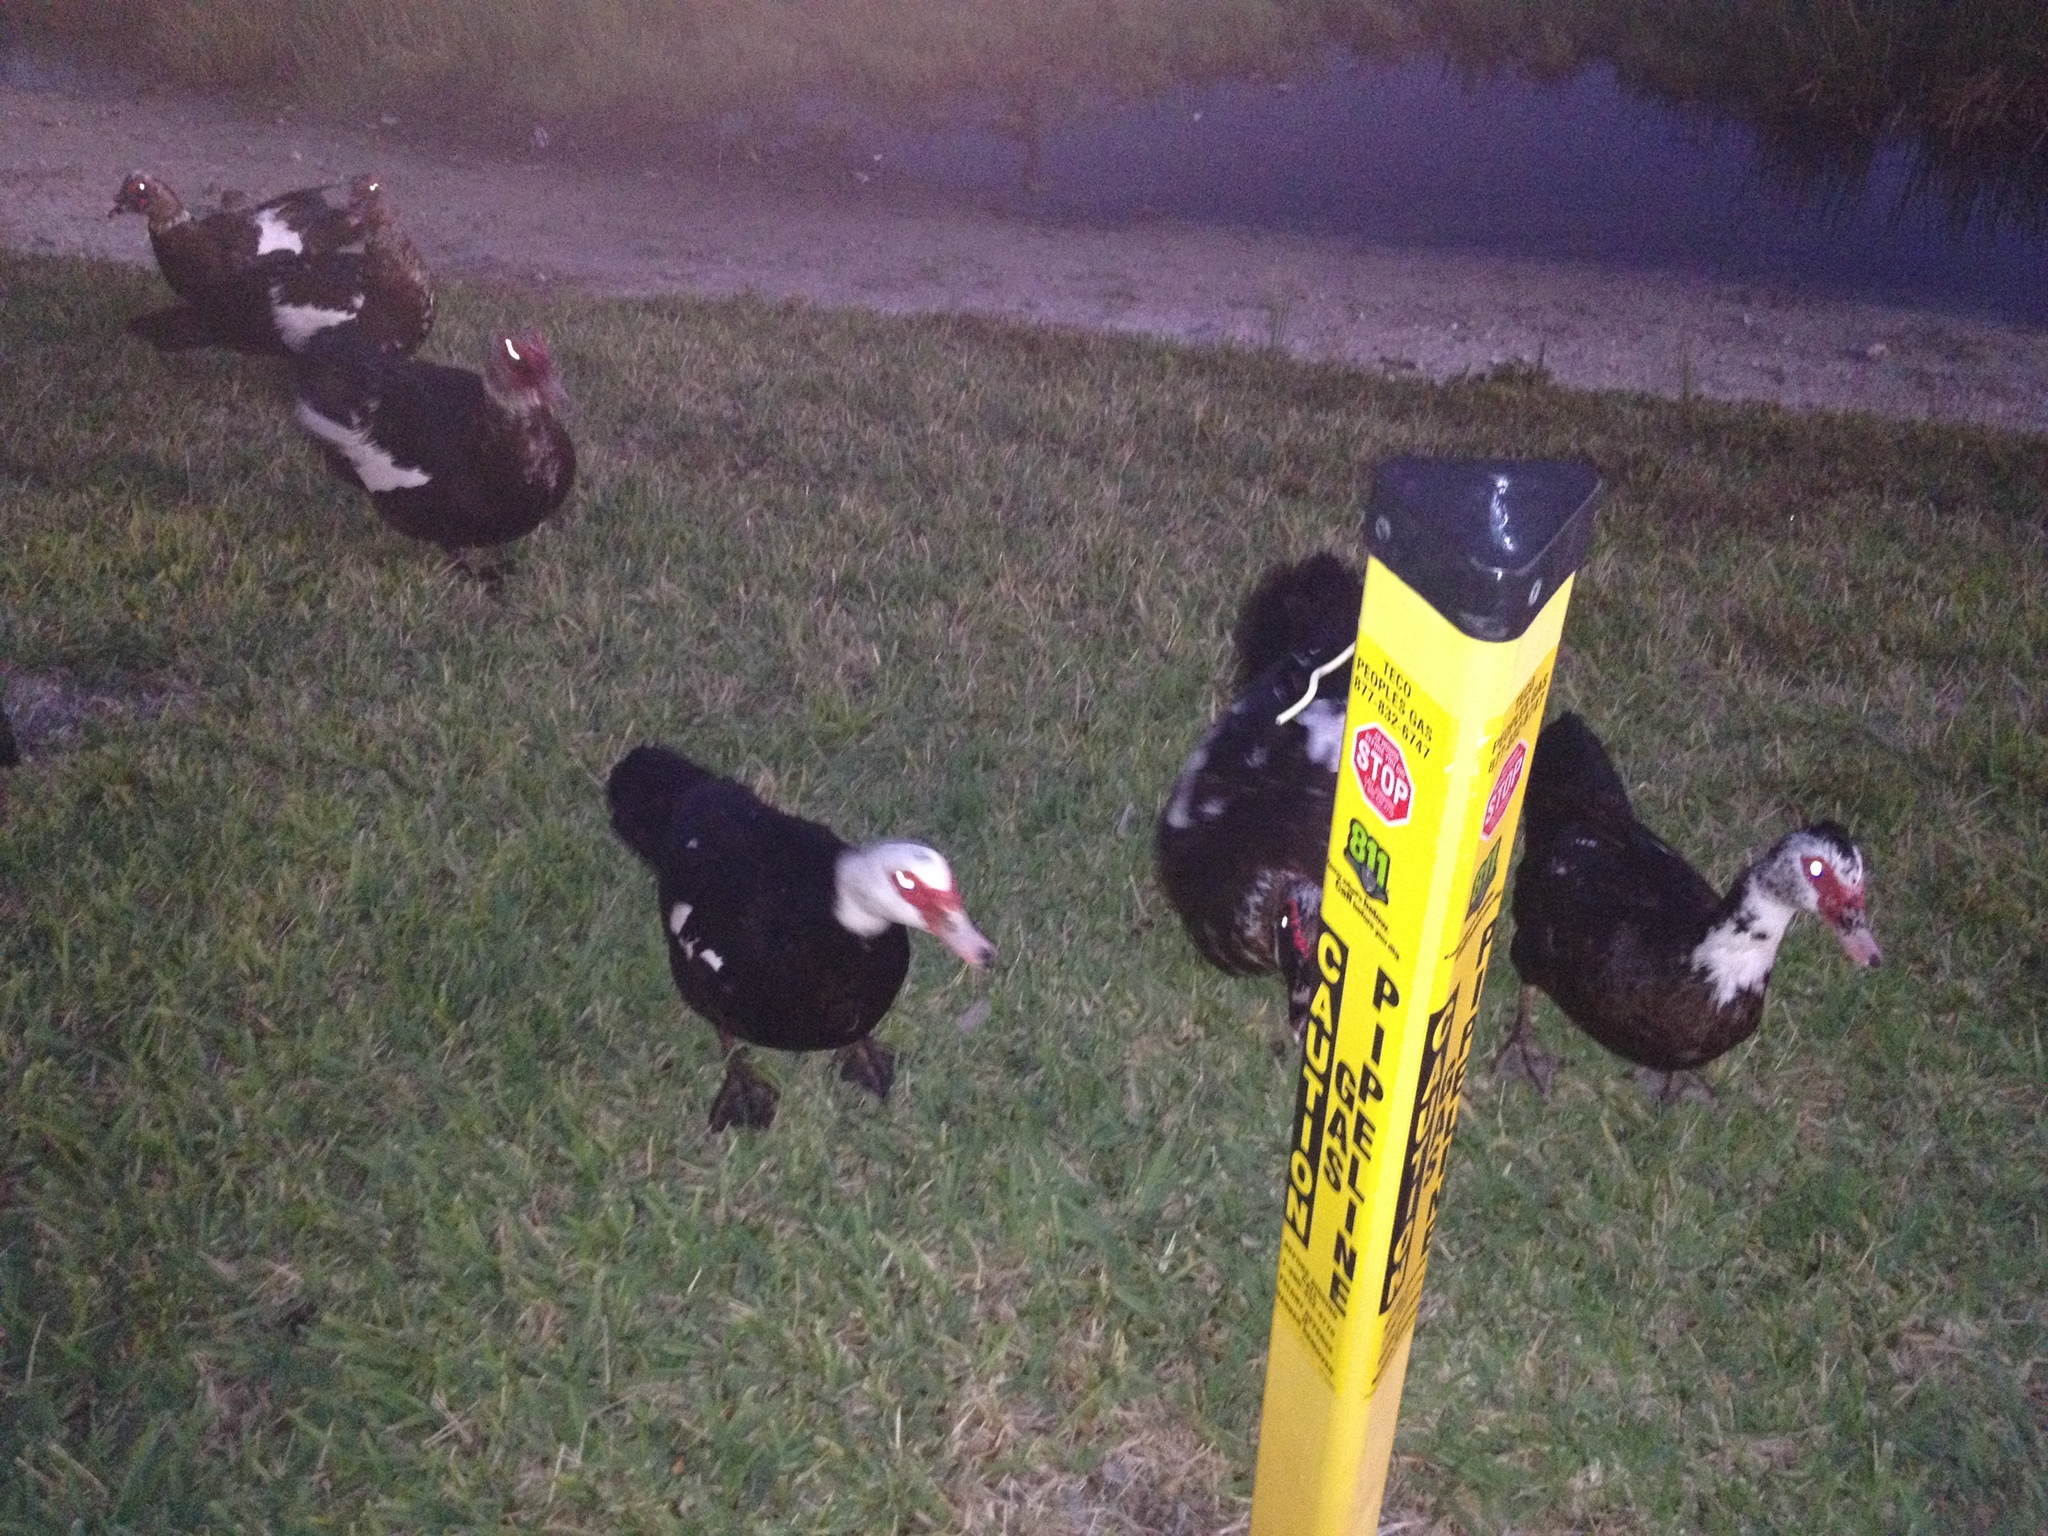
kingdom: Animalia
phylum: Chordata
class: Aves
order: Anseriformes
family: Anatidae
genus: Cairina
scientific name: Cairina moschata
